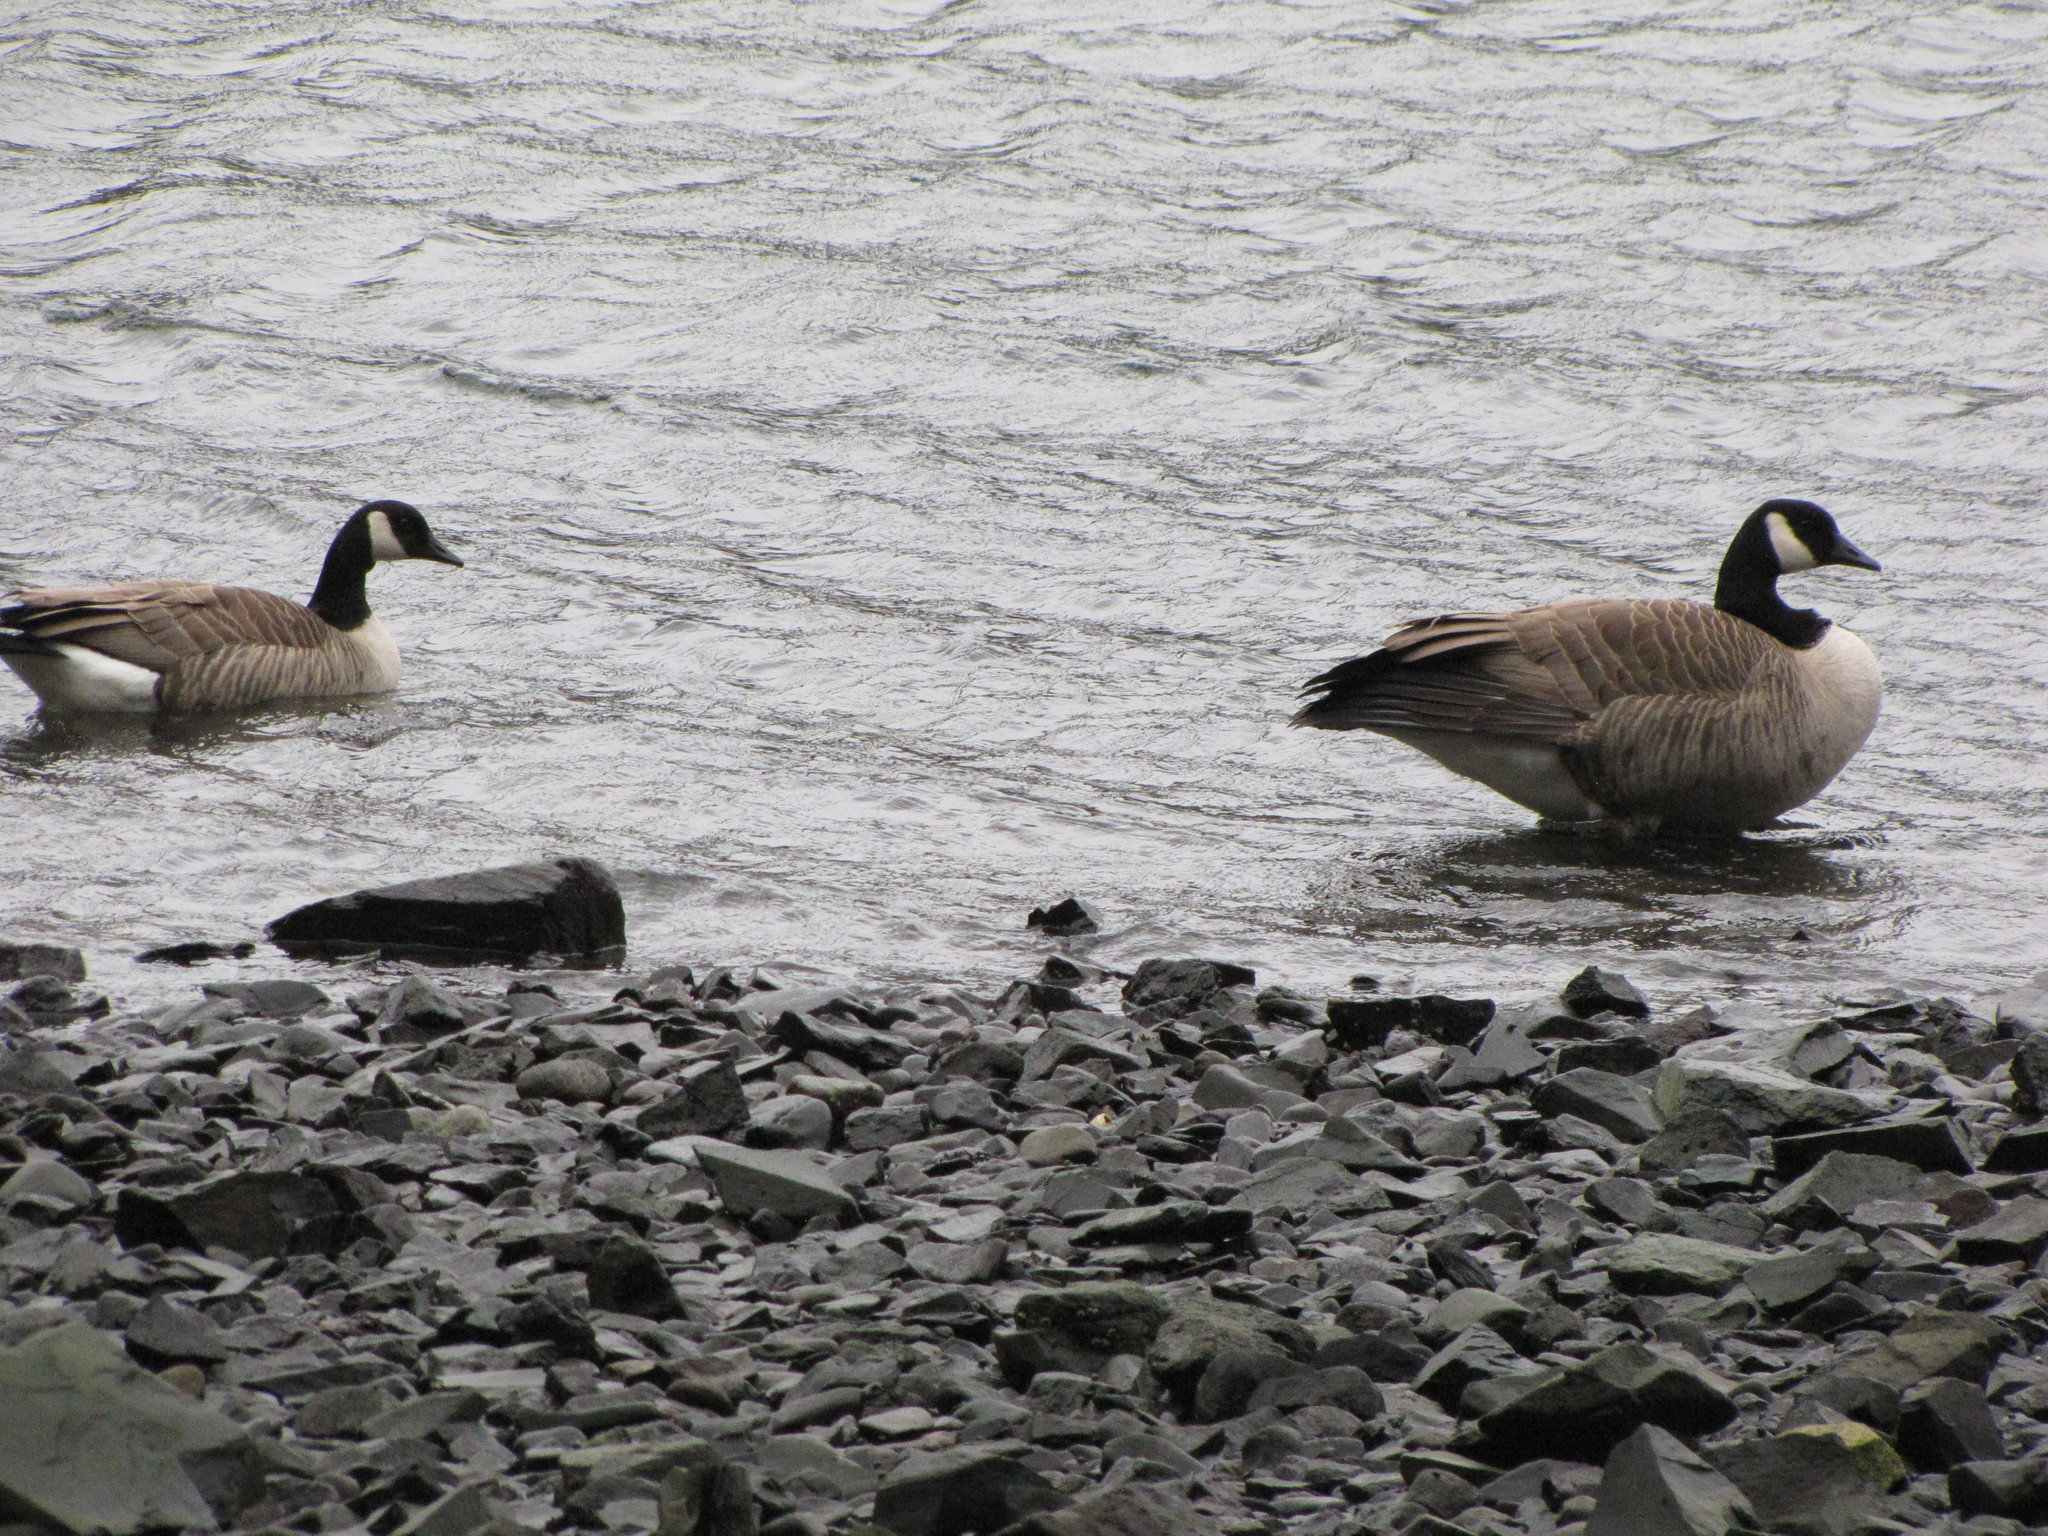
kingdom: Animalia
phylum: Chordata
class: Aves
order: Anseriformes
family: Anatidae
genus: Branta
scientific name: Branta canadensis
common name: Canada goose
